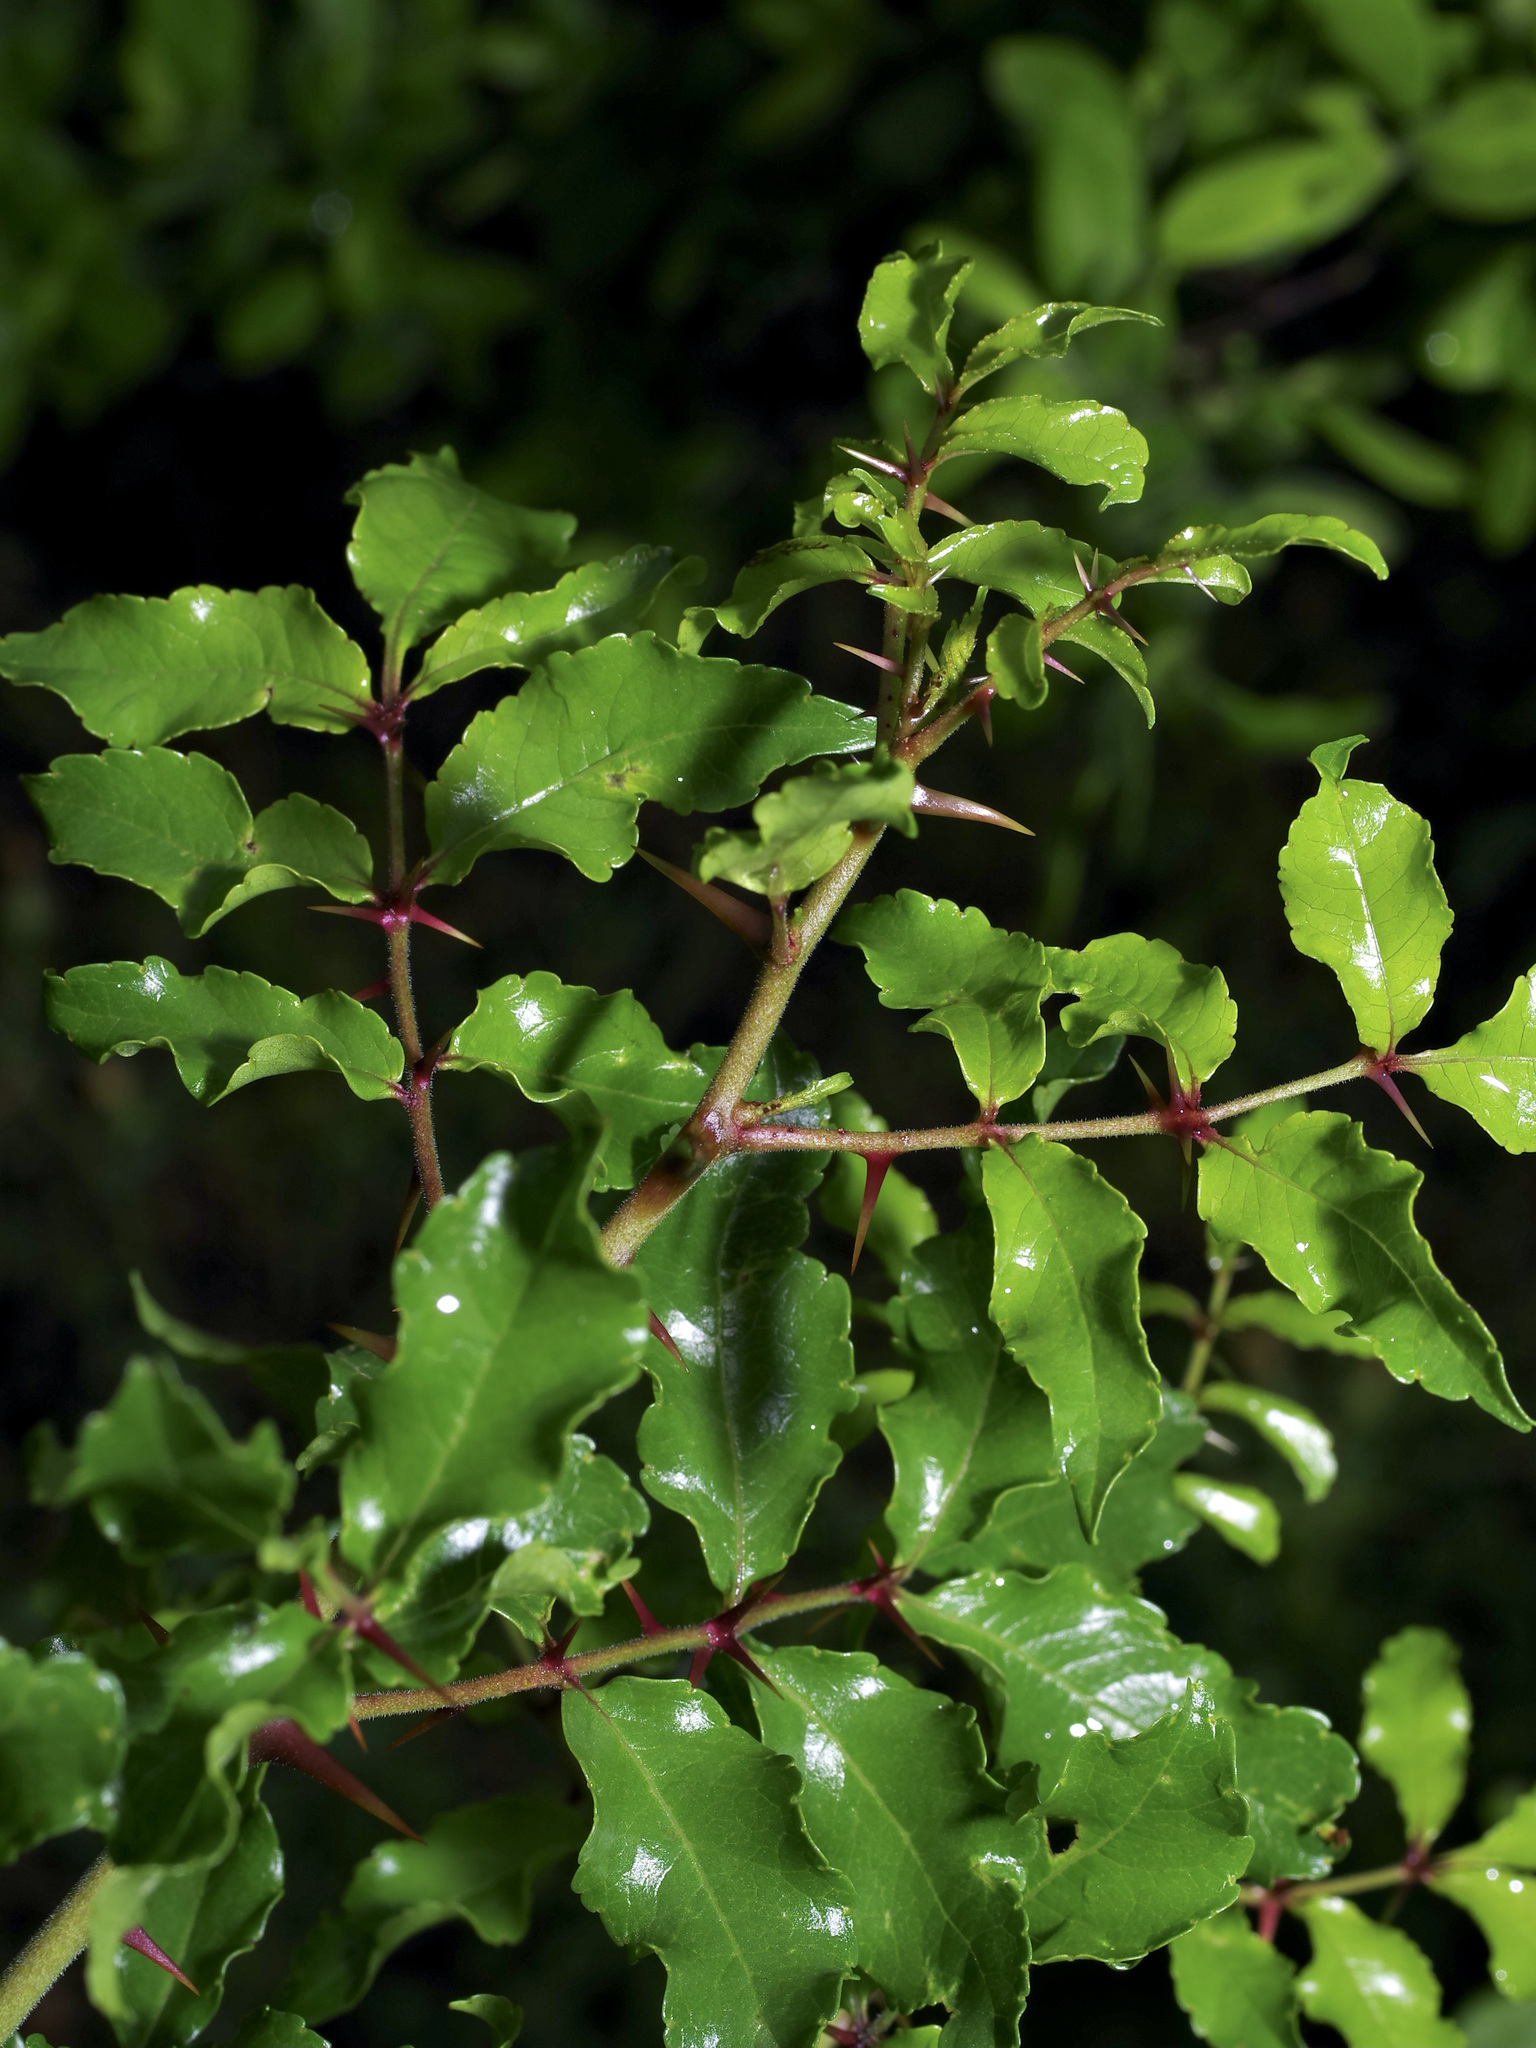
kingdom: Plantae
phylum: Tracheophyta
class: Magnoliopsida
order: Sapindales
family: Rutaceae
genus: Zanthoxylum
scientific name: Zanthoxylum clava-herculis
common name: Hercules'-club
